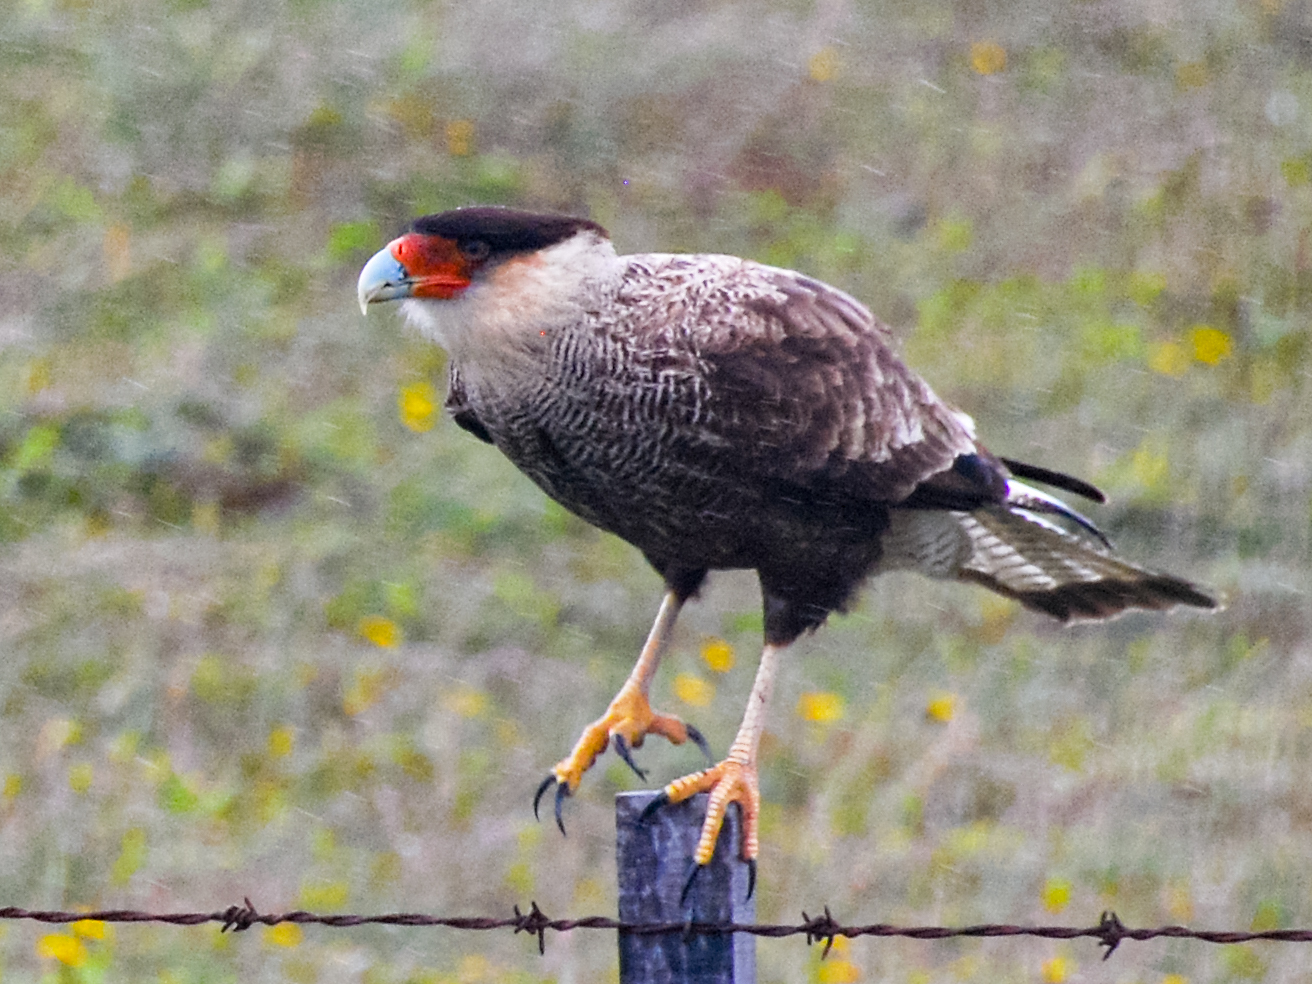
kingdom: Animalia
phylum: Chordata
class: Aves
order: Falconiformes
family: Falconidae
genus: Caracara
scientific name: Caracara plancus
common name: Southern caracara
